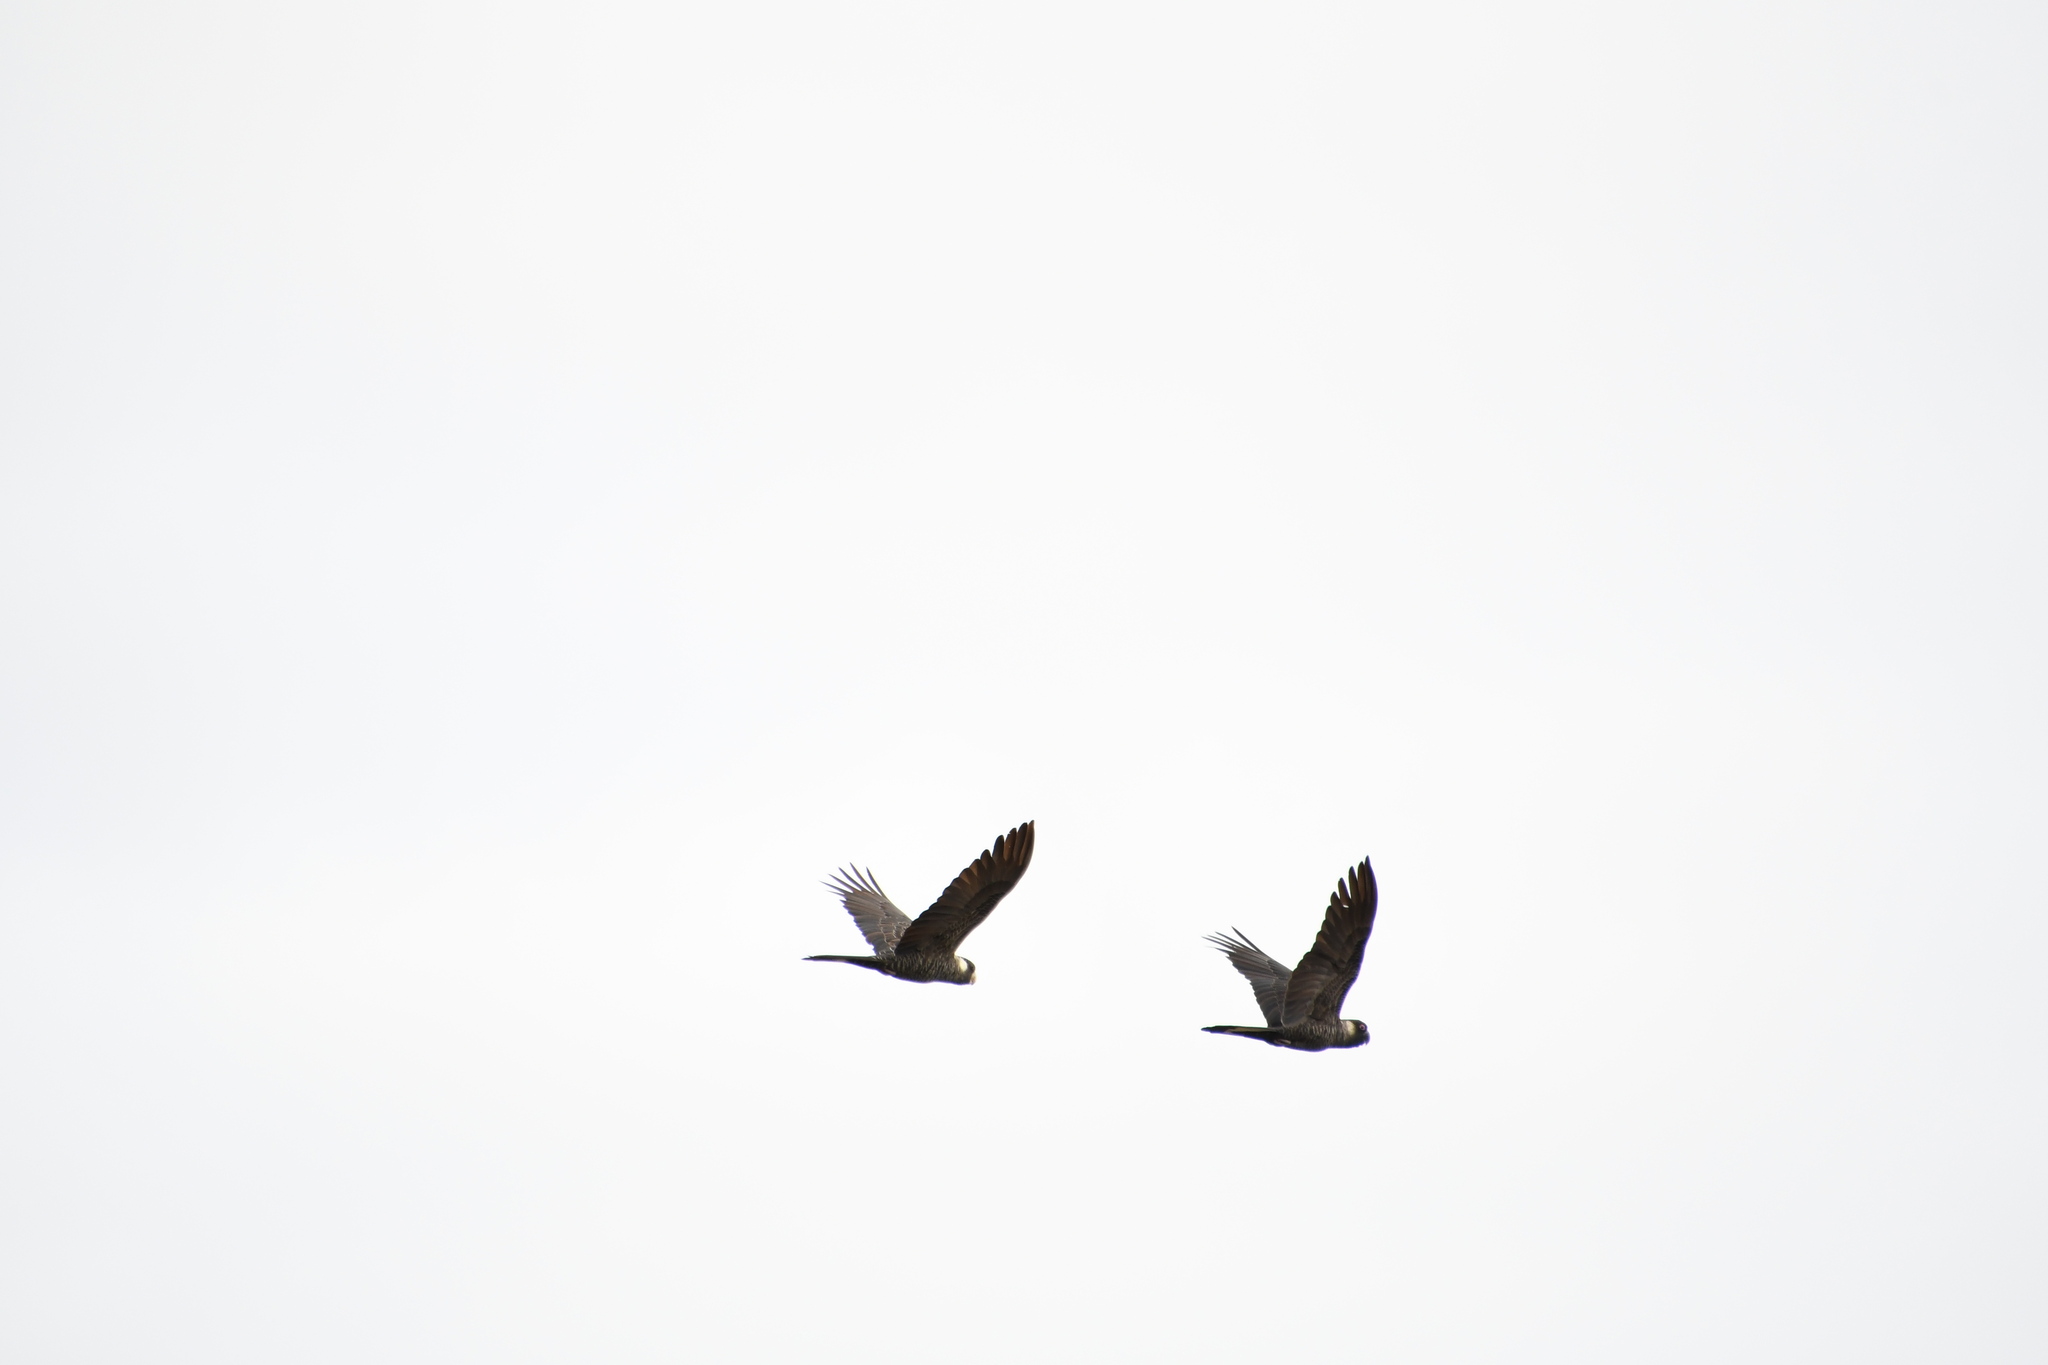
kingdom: Animalia
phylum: Chordata
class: Aves
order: Psittaciformes
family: Cacatuidae
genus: Zanda
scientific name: Zanda latirostris
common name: Short-billed black-cockatoo
